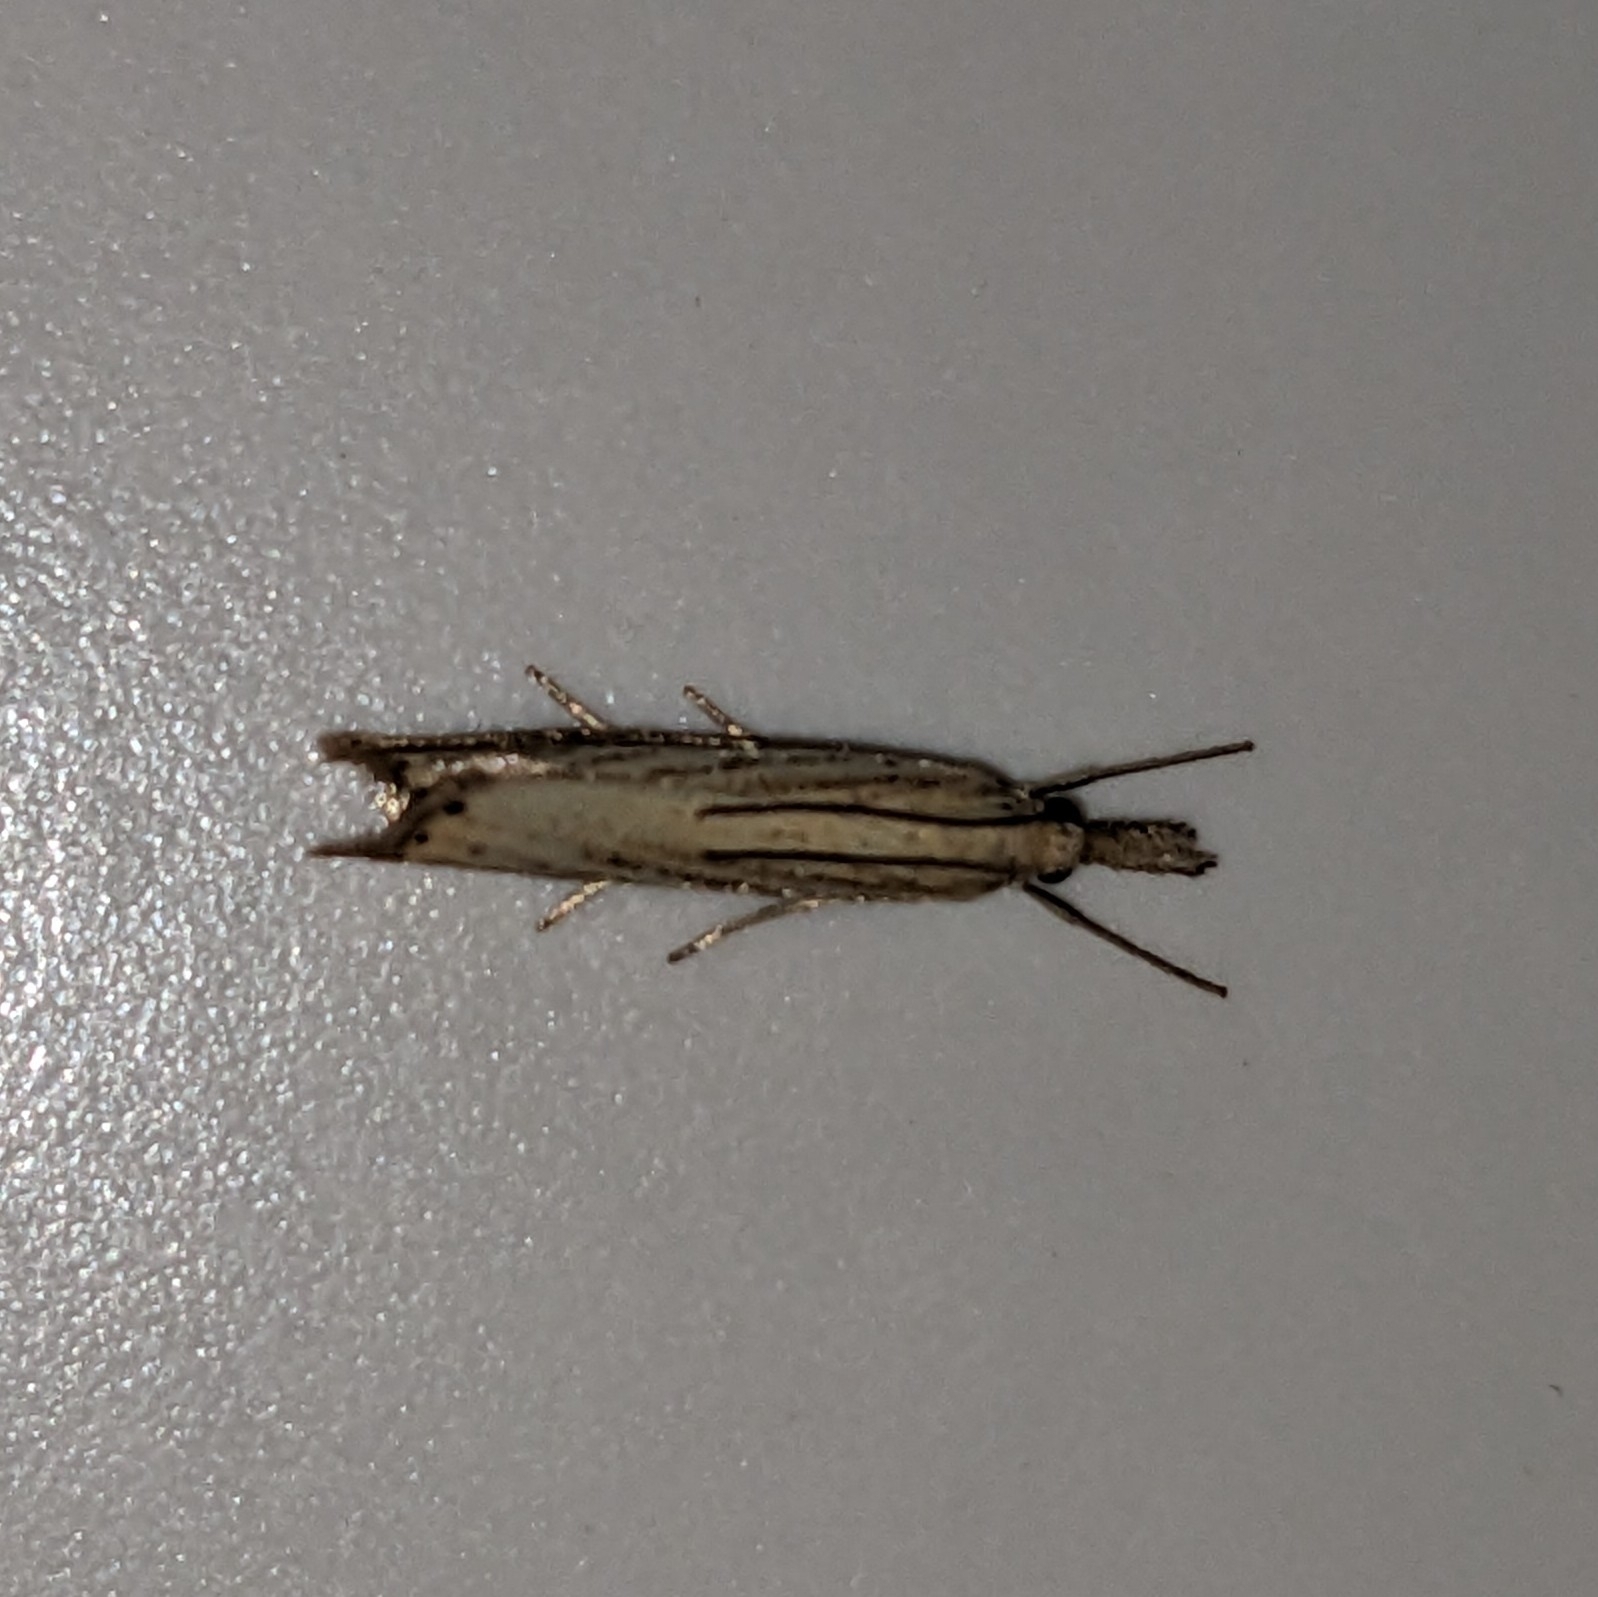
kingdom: Animalia
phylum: Arthropoda
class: Insecta
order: Lepidoptera
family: Crambidae
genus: Agriphila
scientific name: Agriphila straminella
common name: Straw grass-veneer
